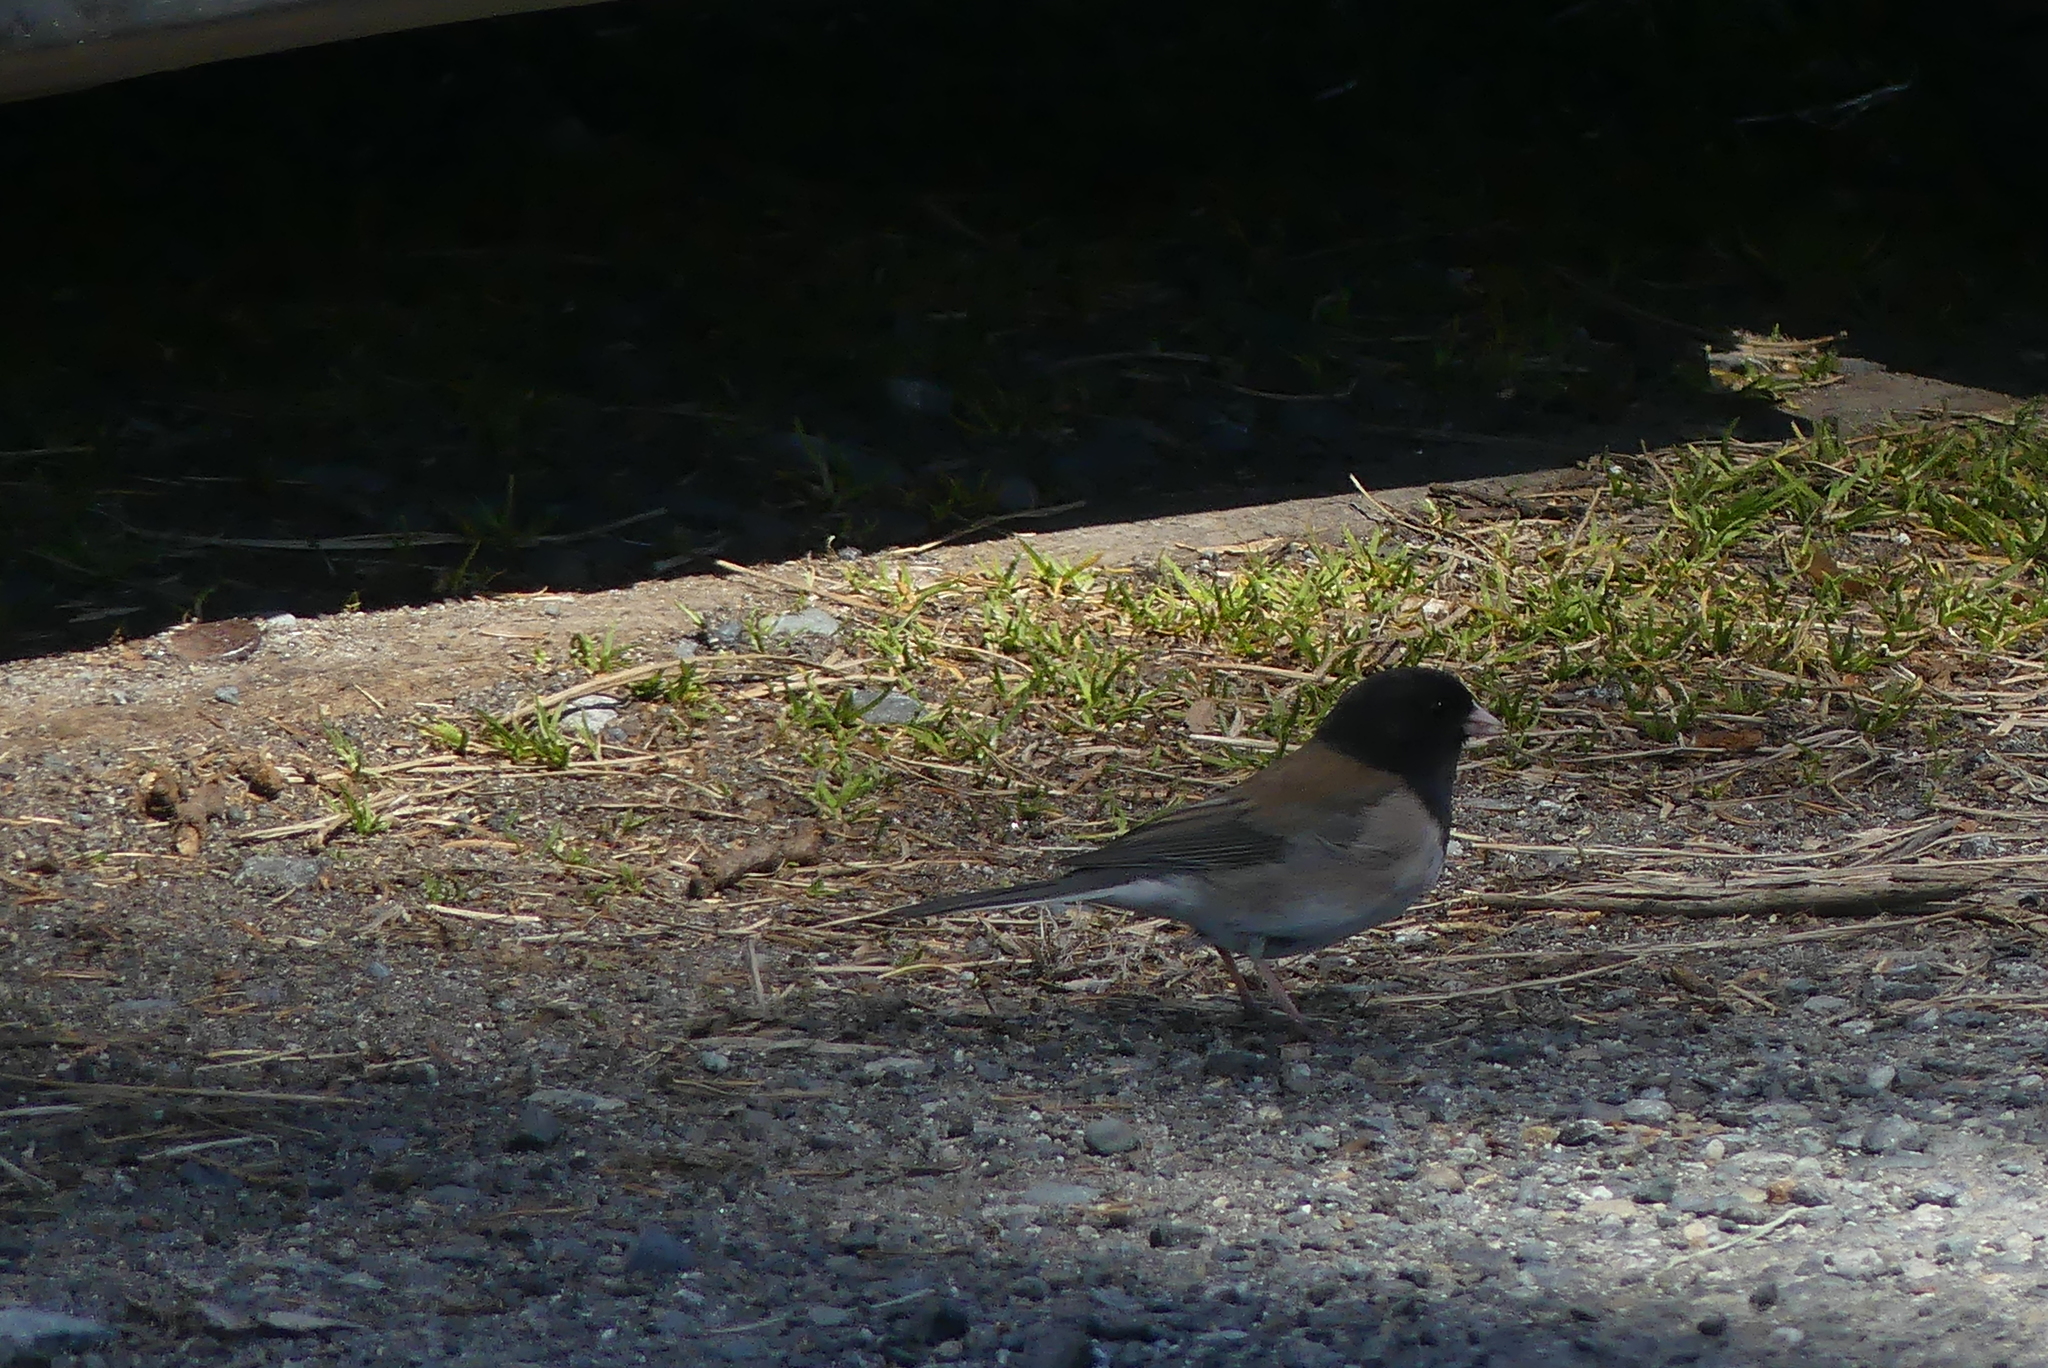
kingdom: Animalia
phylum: Chordata
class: Aves
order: Passeriformes
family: Passerellidae
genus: Junco
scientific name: Junco hyemalis
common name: Dark-eyed junco
